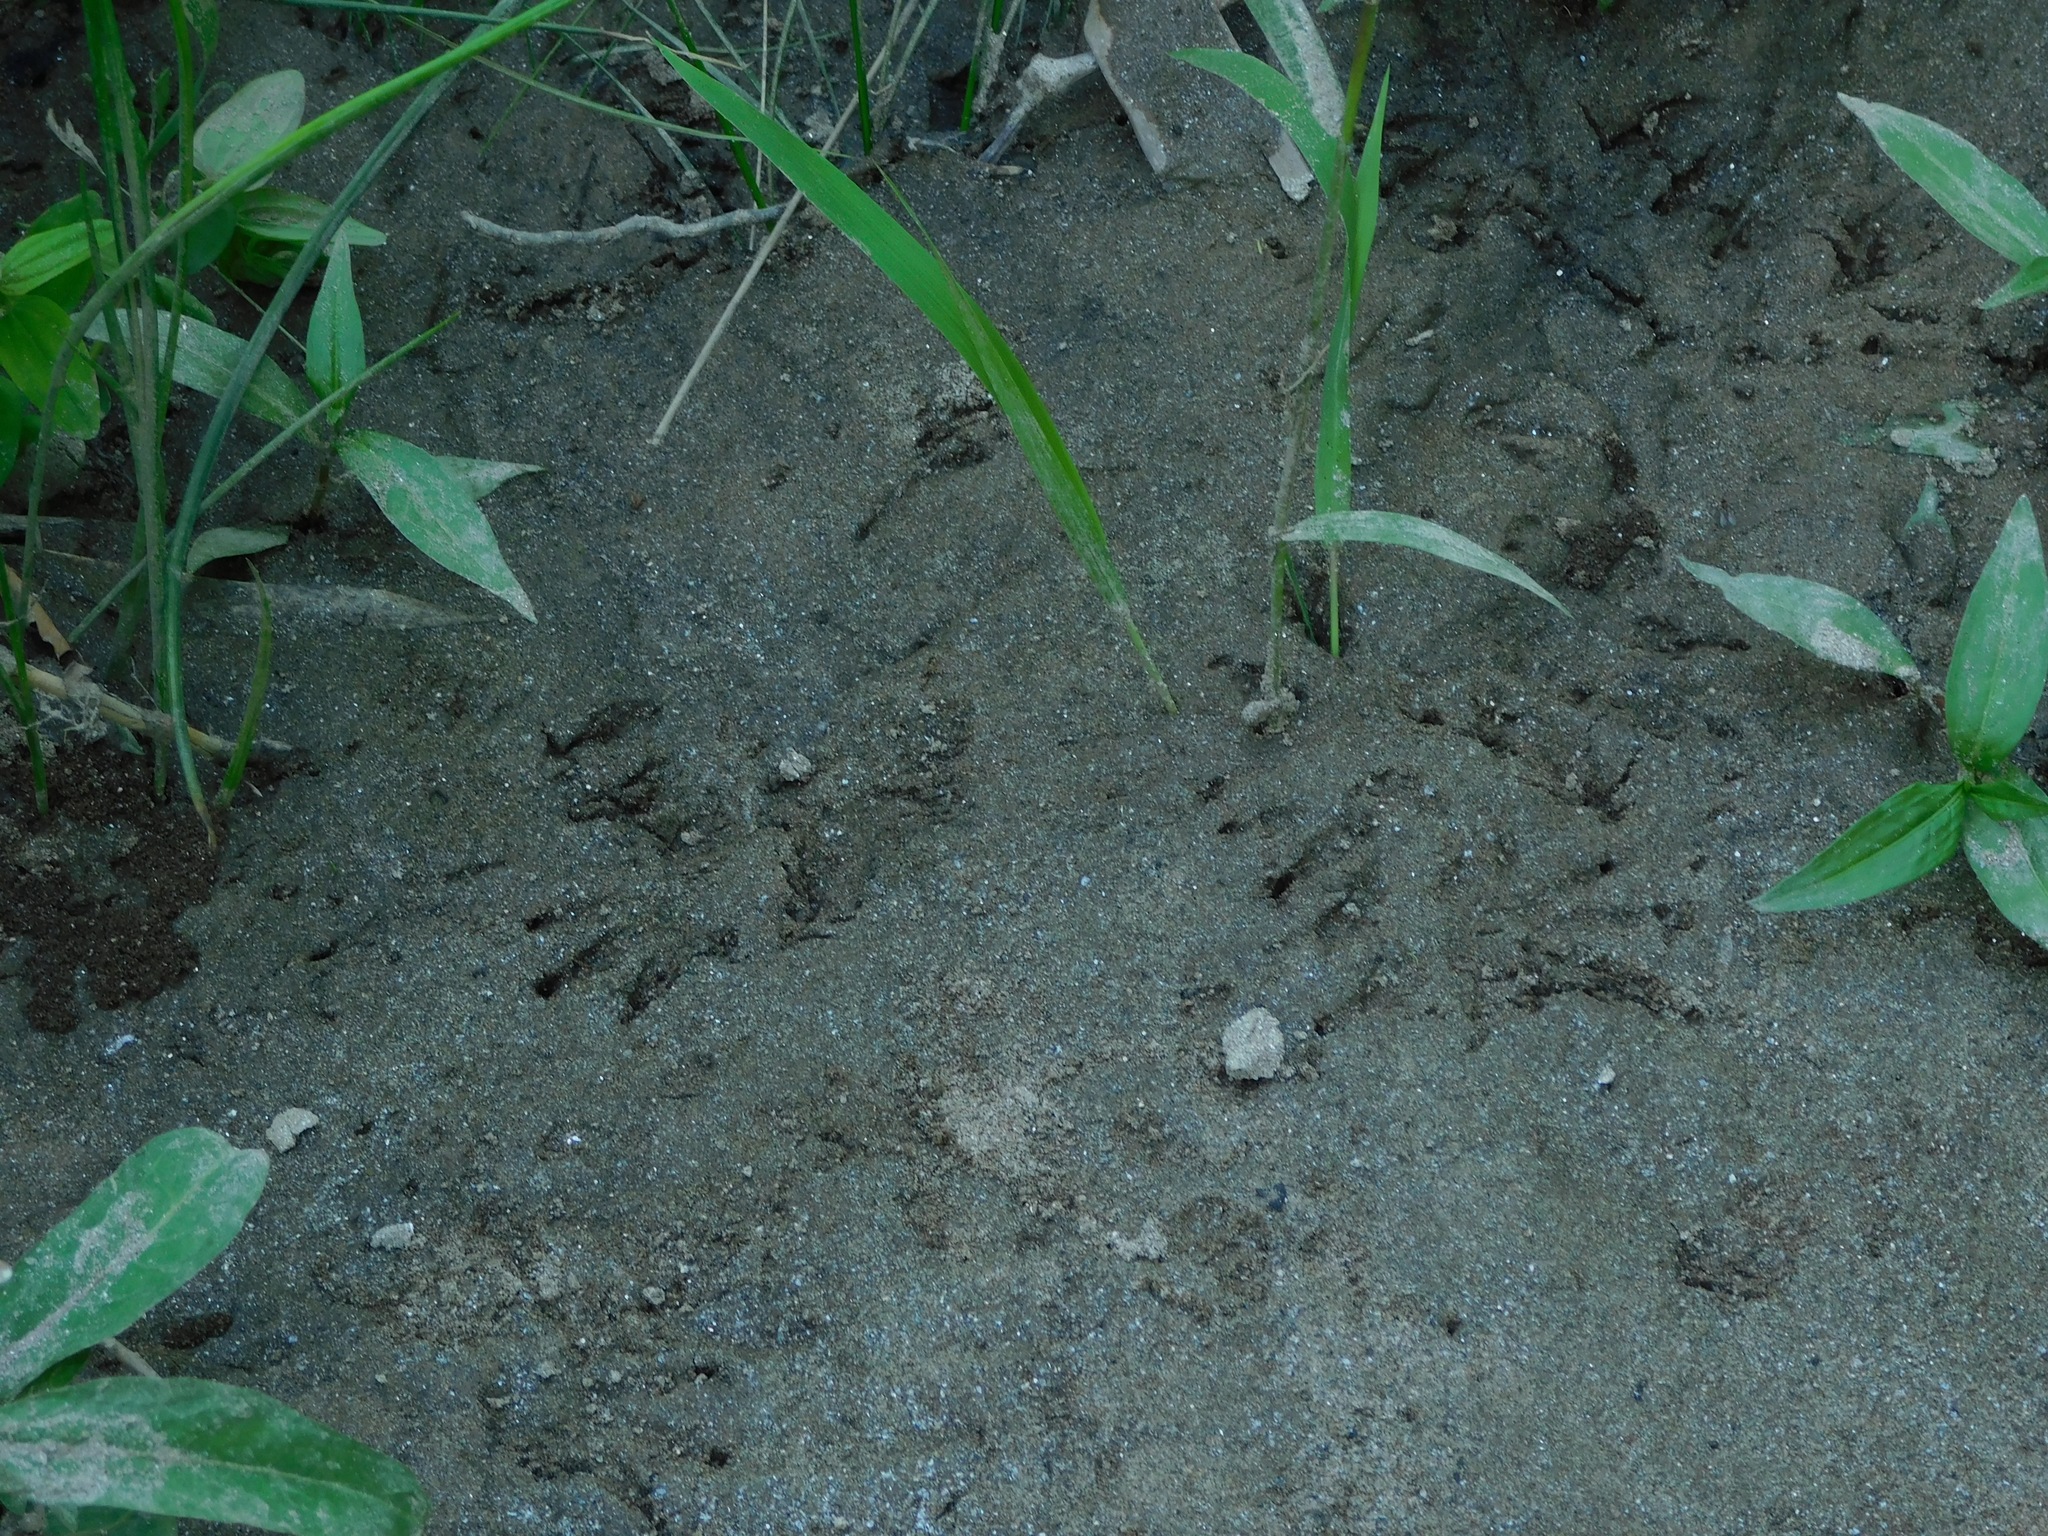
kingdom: Animalia
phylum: Chordata
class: Mammalia
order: Rodentia
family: Cricetidae
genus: Ondatra
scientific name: Ondatra zibethicus
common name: Muskrat
